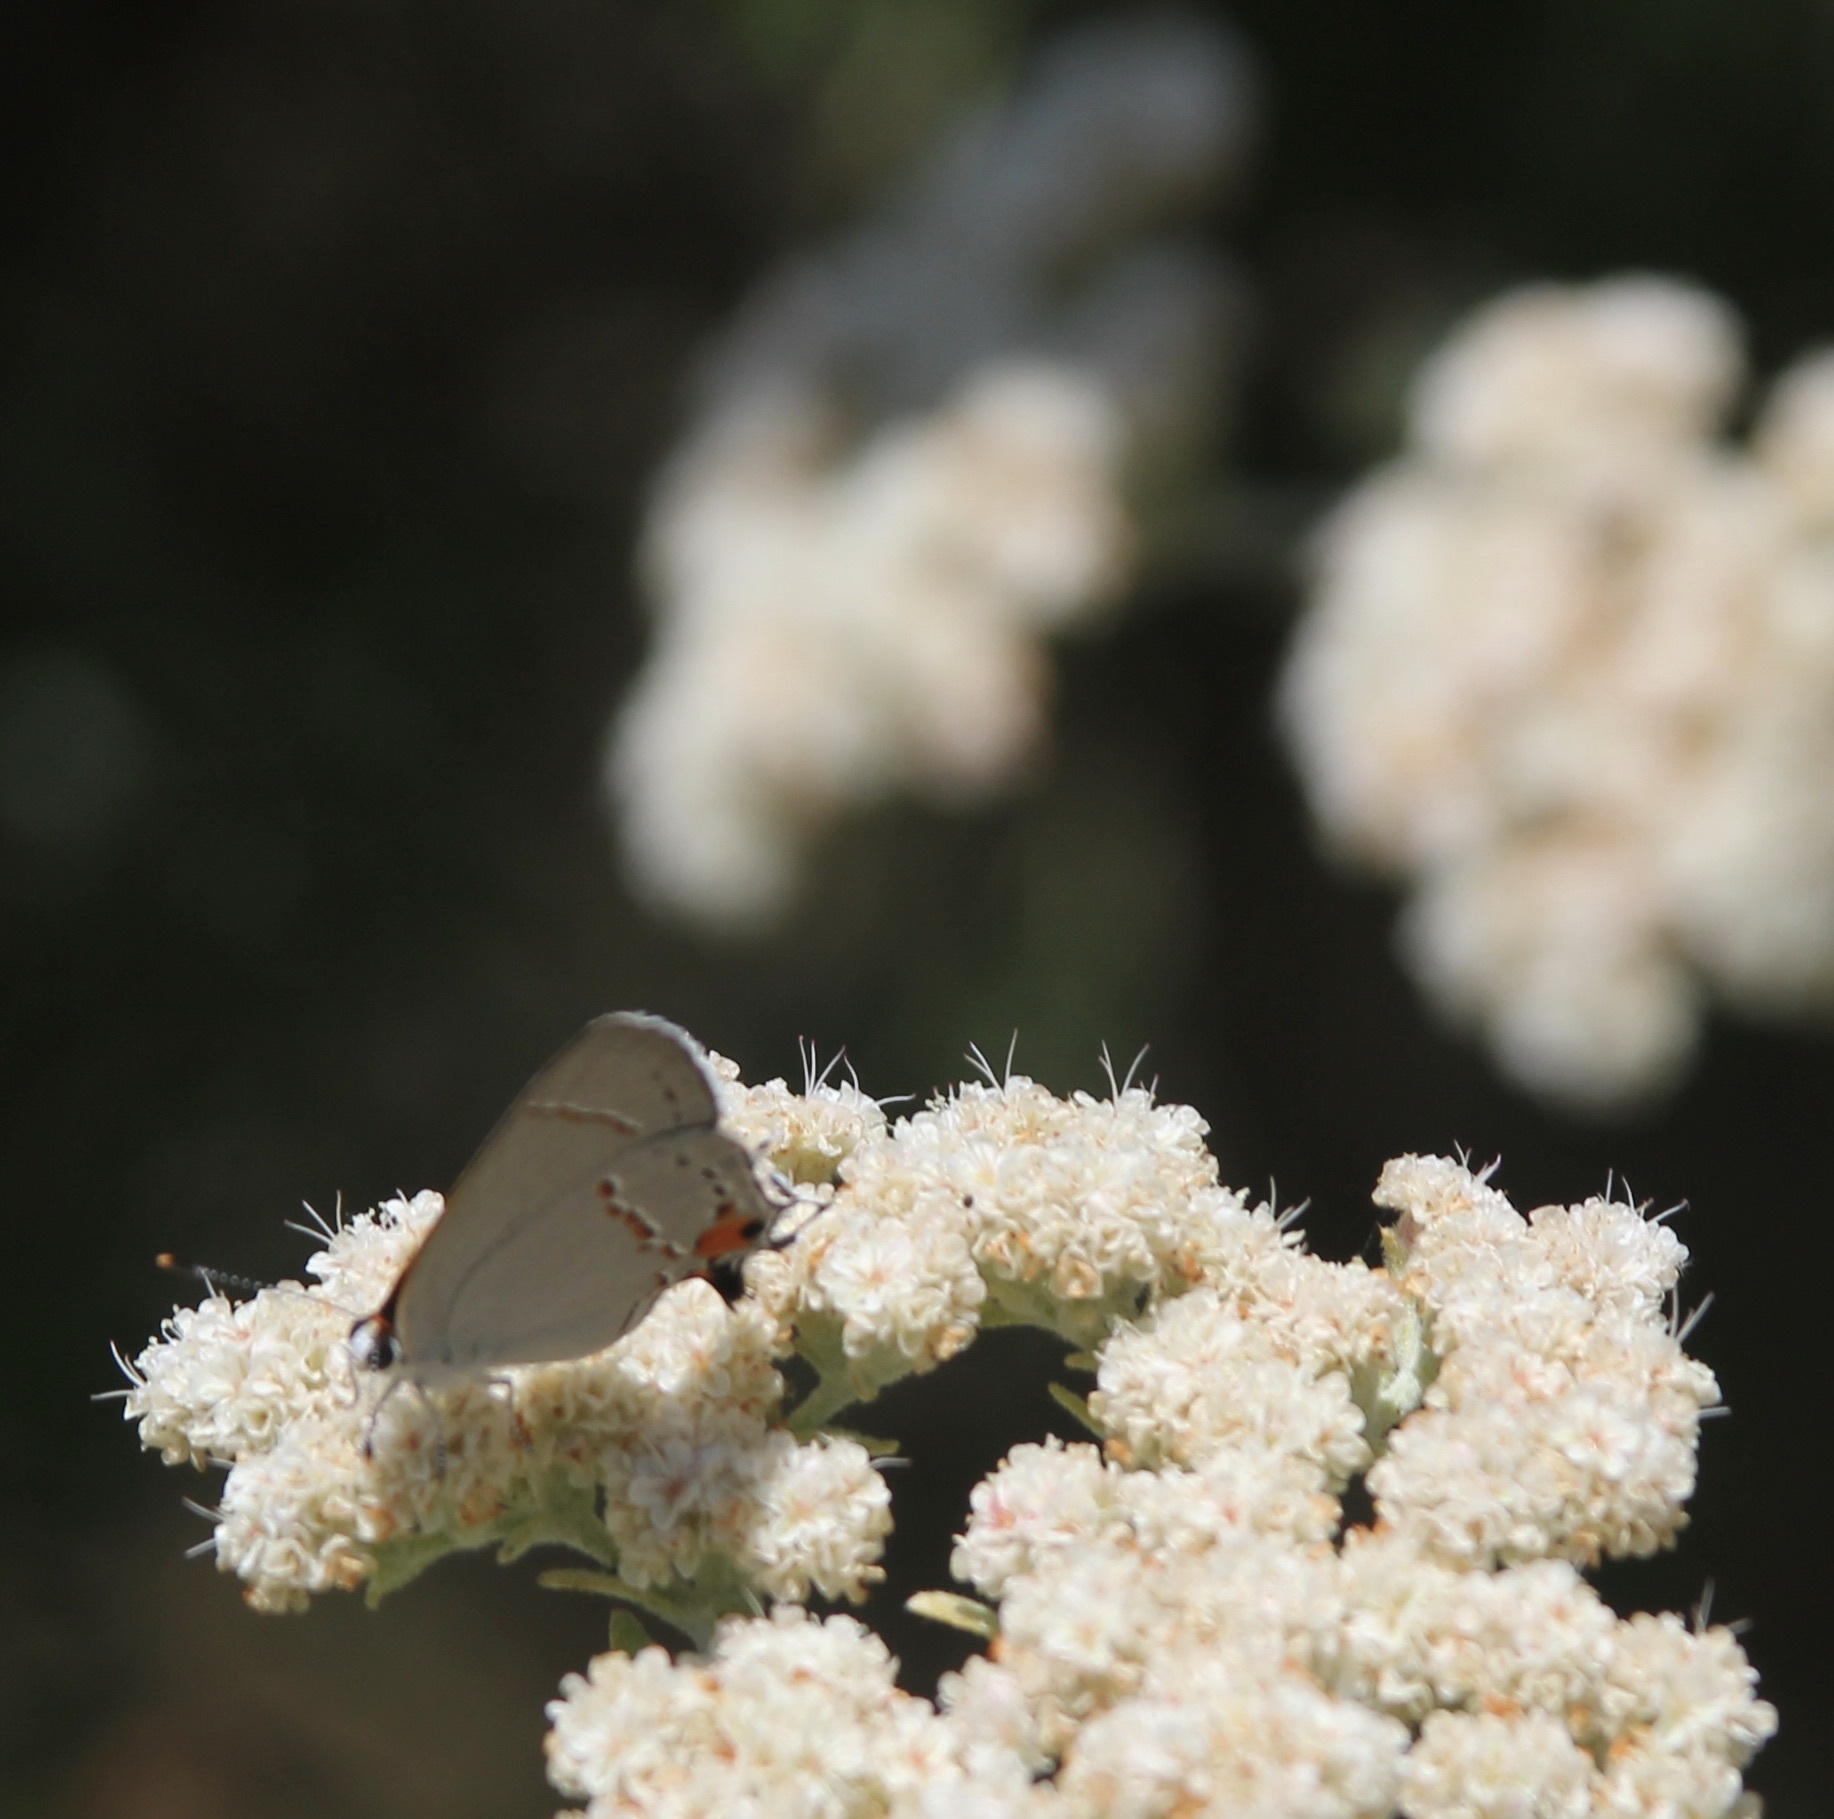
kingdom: Animalia
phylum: Arthropoda
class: Insecta
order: Lepidoptera
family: Lycaenidae
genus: Strymon
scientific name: Strymon melinus
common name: Gray hairstreak
